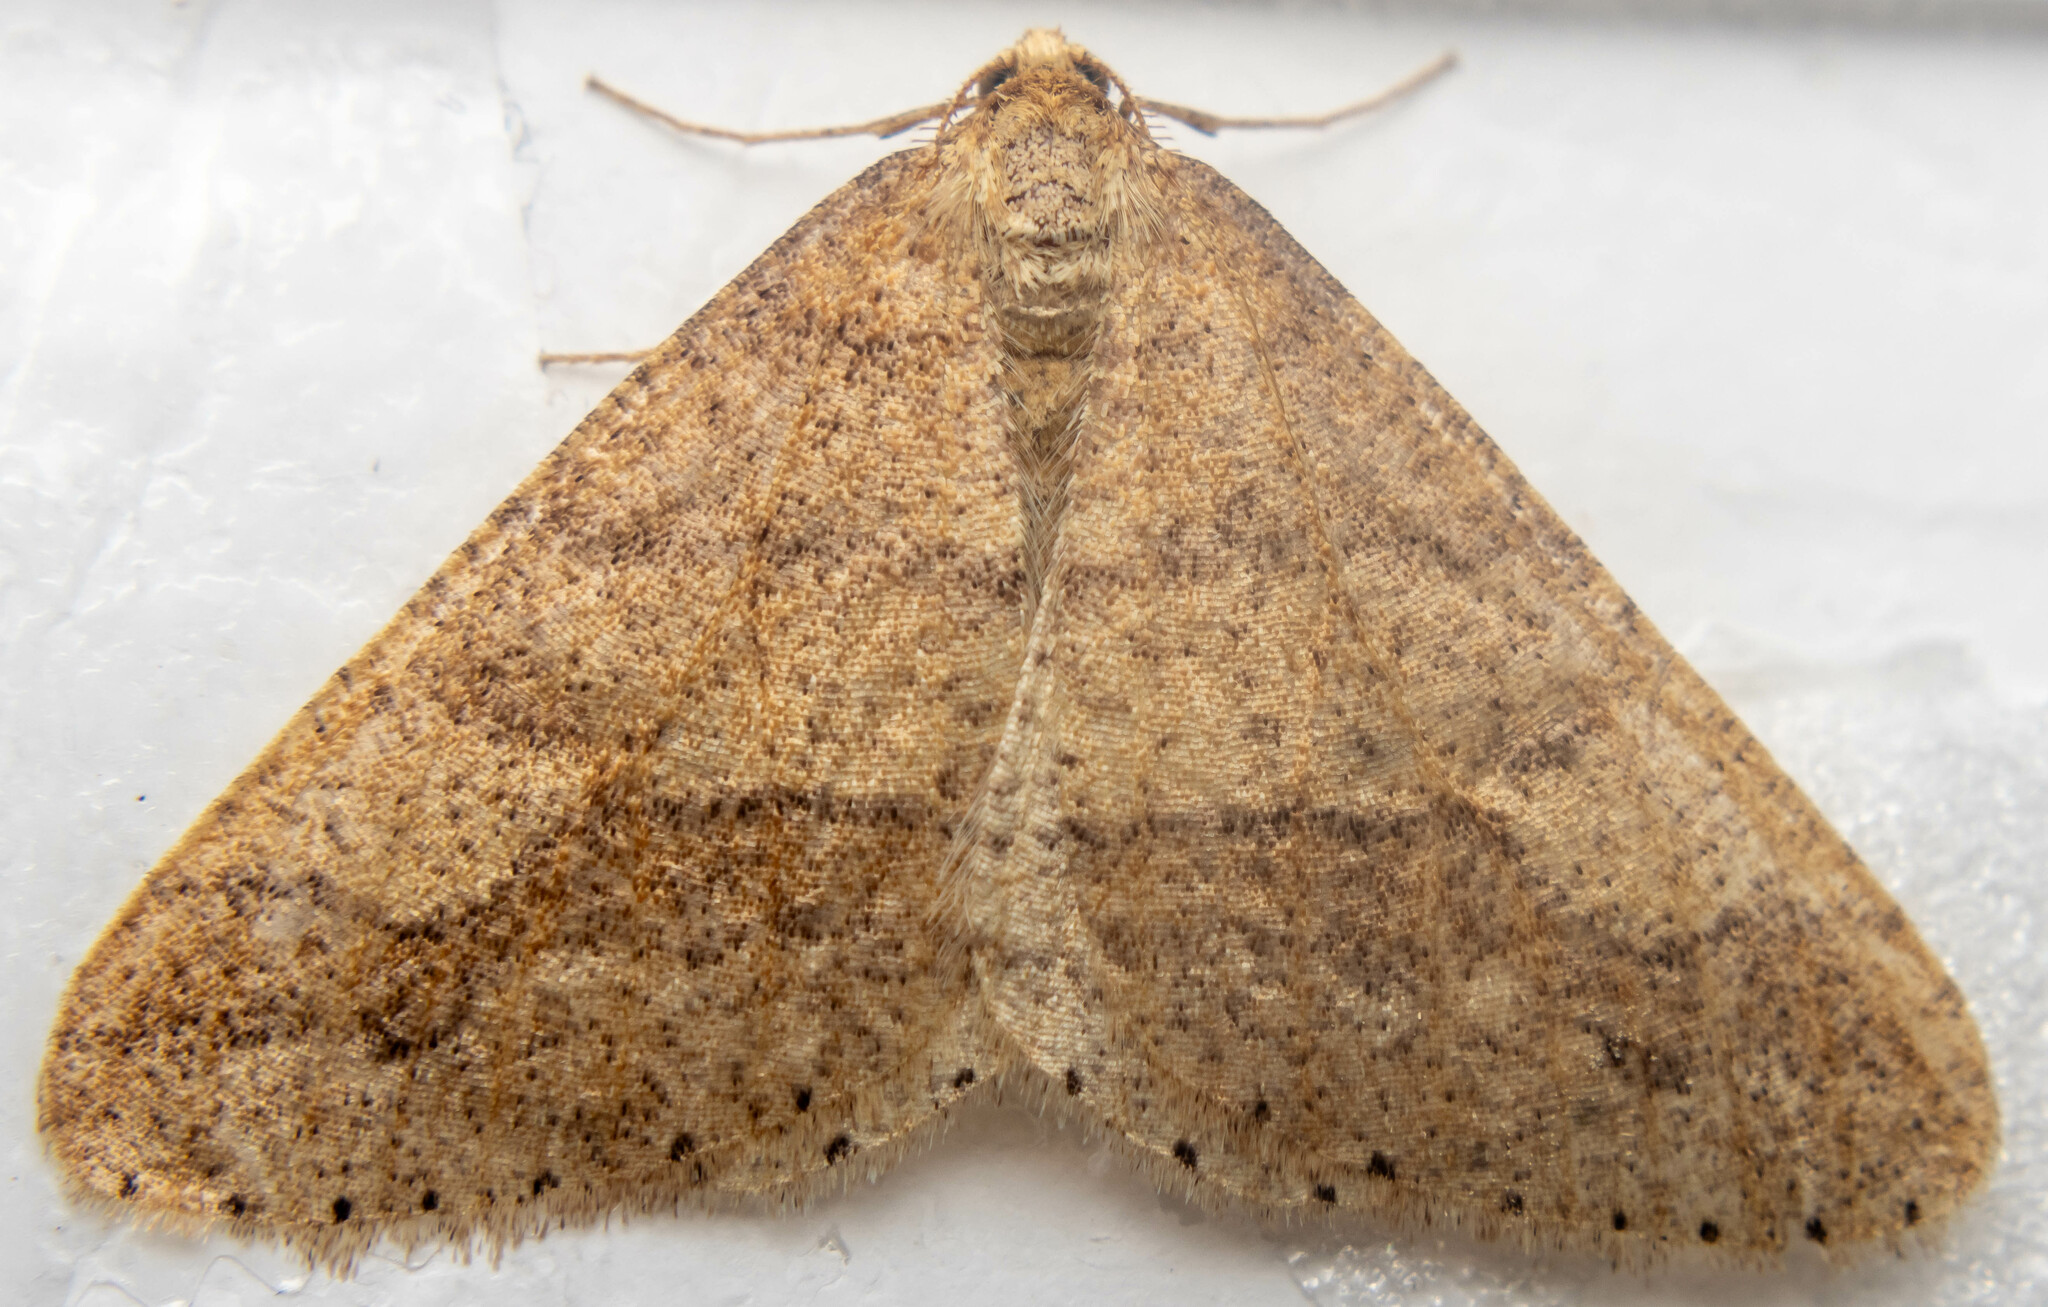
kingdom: Animalia
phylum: Arthropoda
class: Insecta
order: Lepidoptera
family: Geometridae
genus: Agriopis
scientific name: Agriopis marginaria
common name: Dotted border
